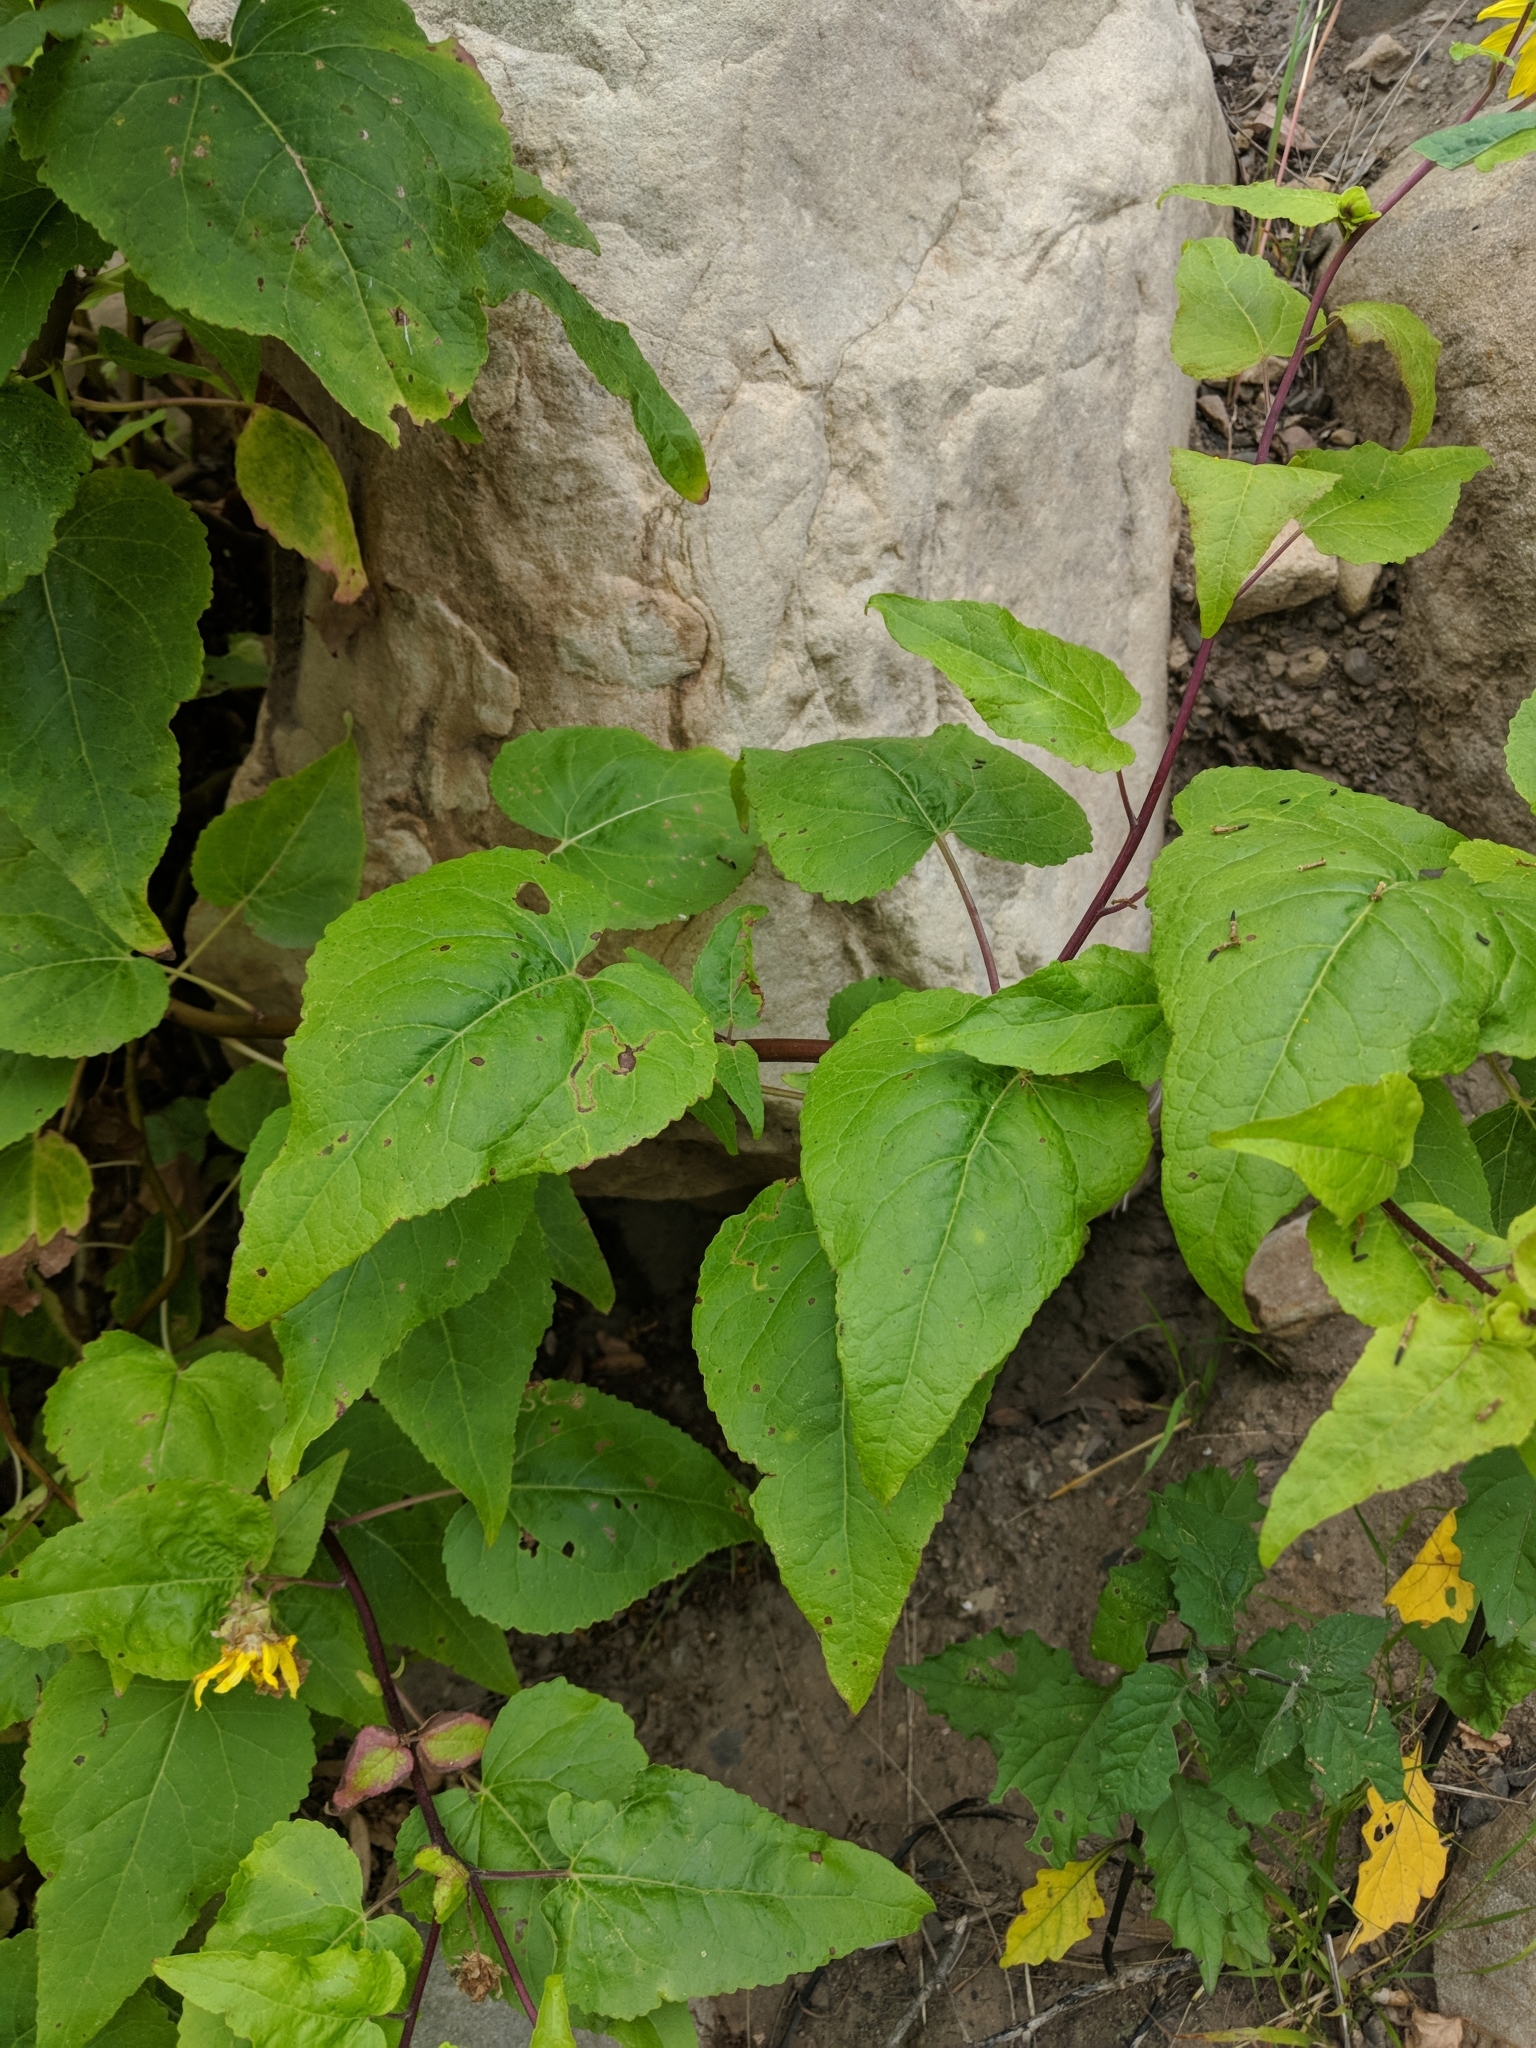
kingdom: Plantae
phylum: Tracheophyta
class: Magnoliopsida
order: Asterales
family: Asteraceae
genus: Venegasia
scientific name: Venegasia carpesioides
